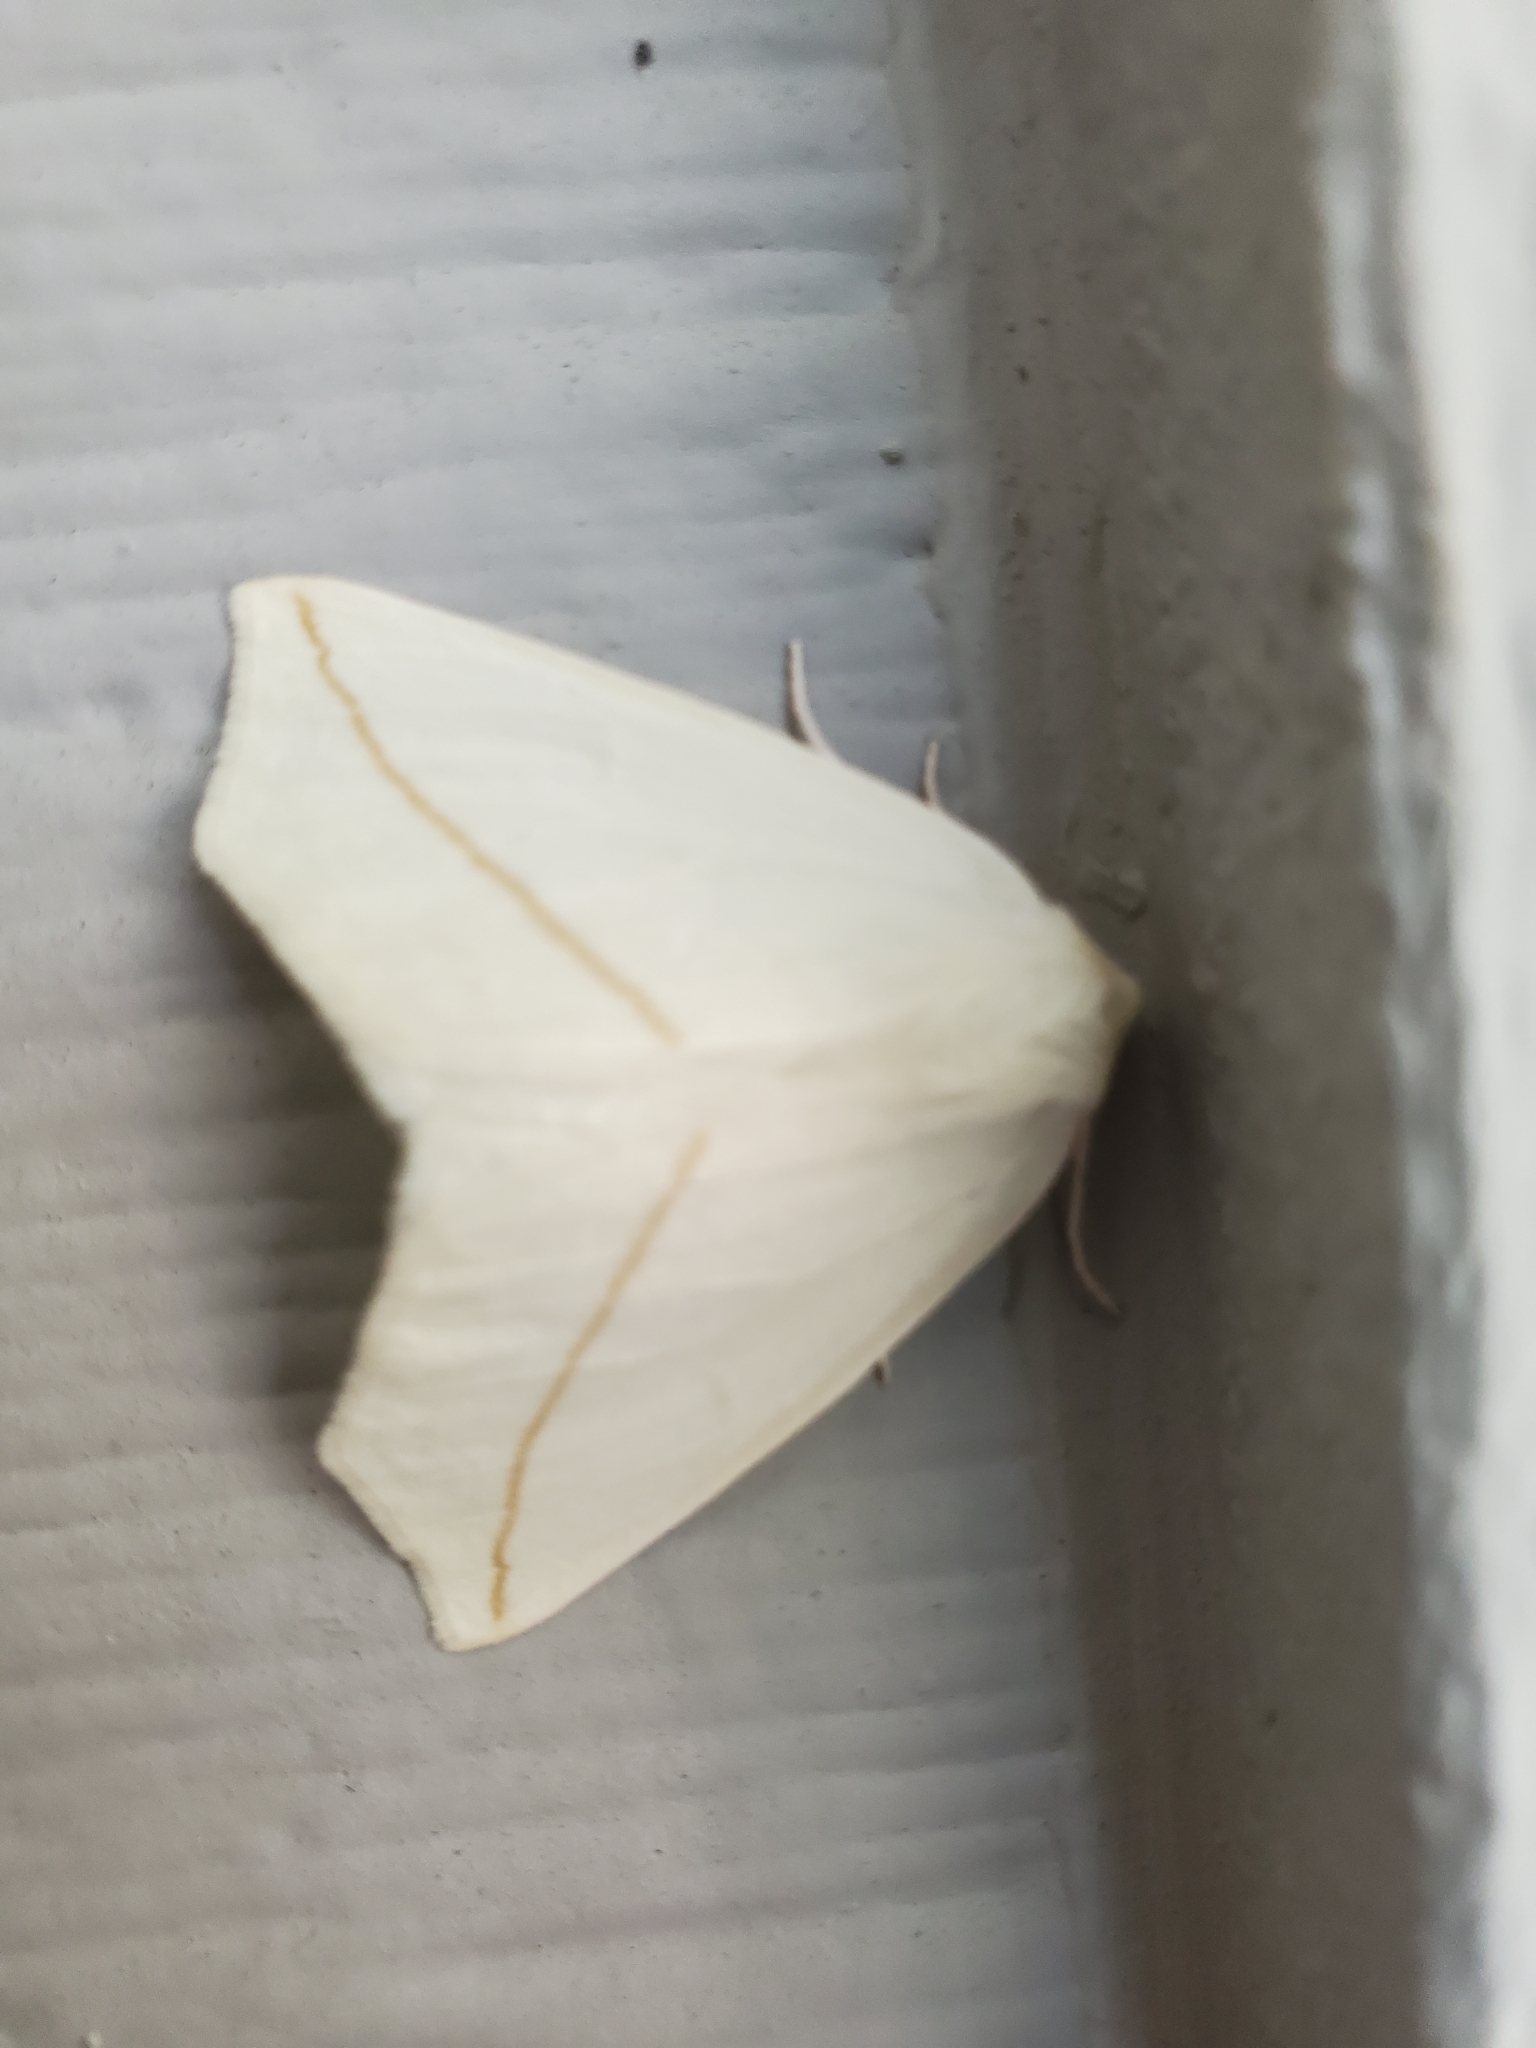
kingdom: Animalia
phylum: Arthropoda
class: Insecta
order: Lepidoptera
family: Geometridae
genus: Tetracis
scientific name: Tetracis cachexiata
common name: White slant-line
